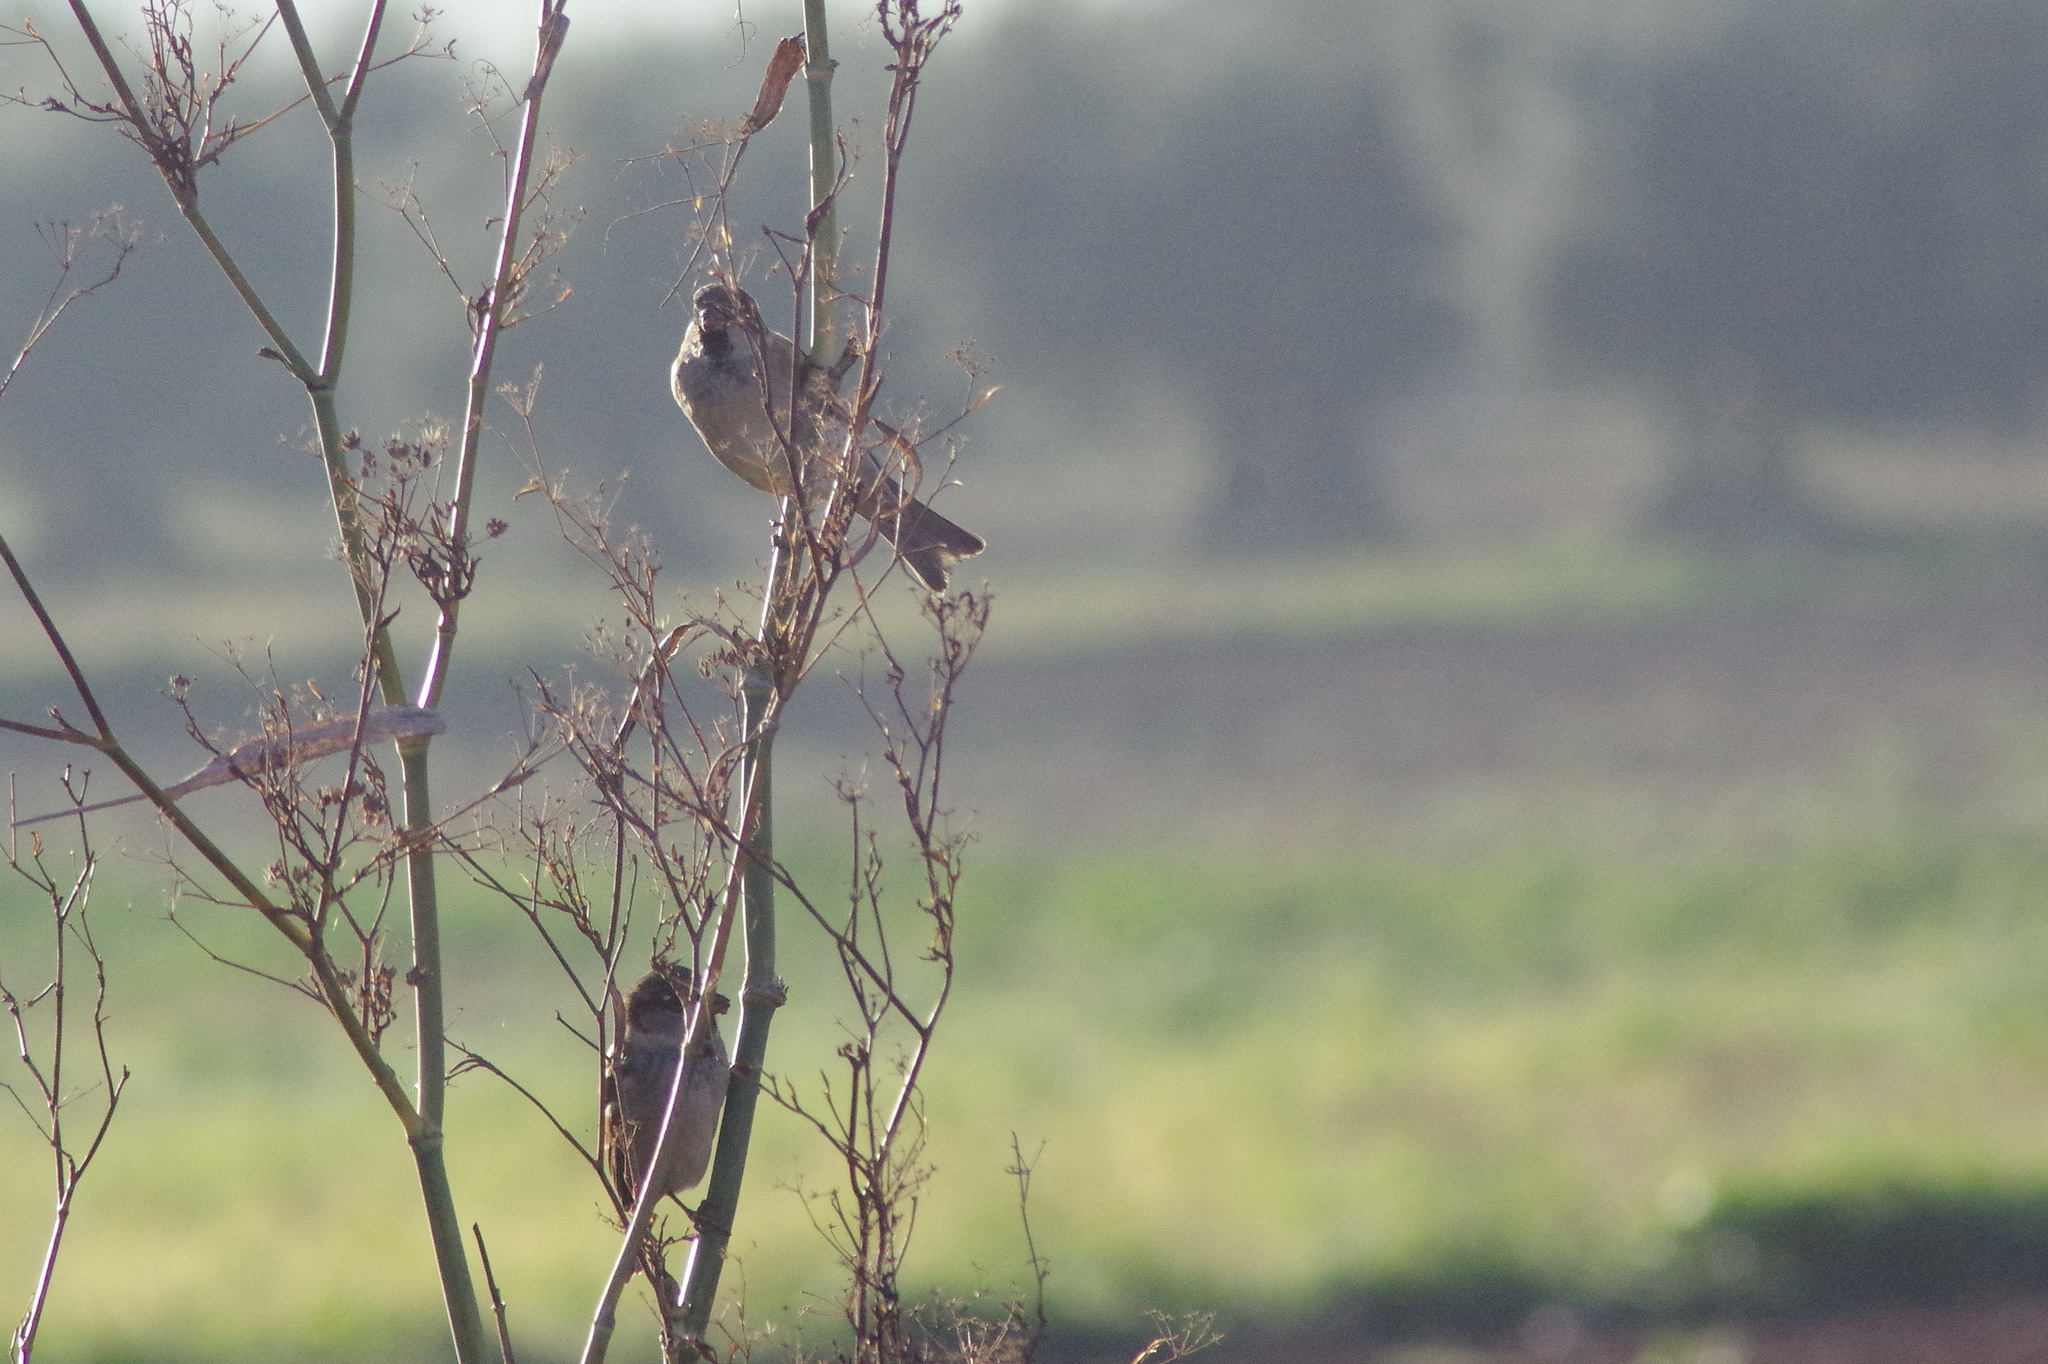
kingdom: Animalia
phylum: Chordata
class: Aves
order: Passeriformes
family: Passeridae
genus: Passer
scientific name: Passer domesticus
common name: House sparrow
